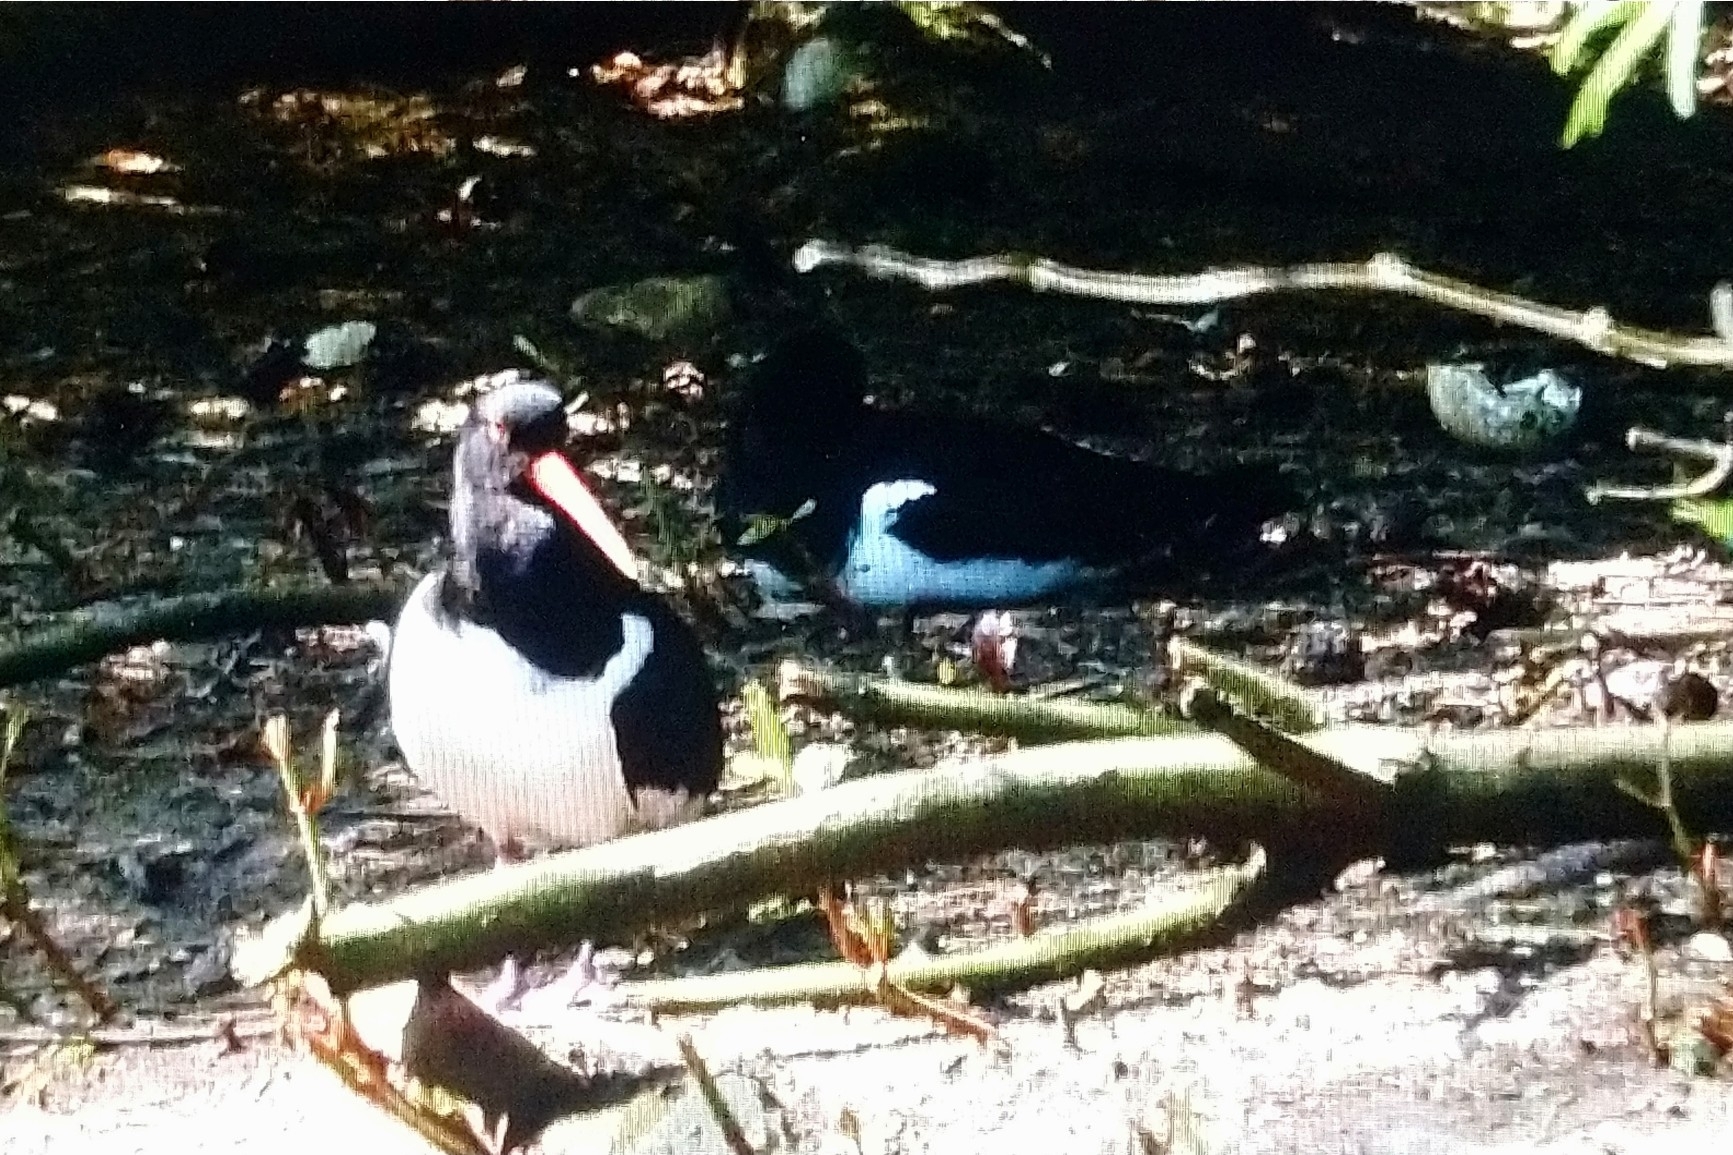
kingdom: Animalia
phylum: Chordata
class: Aves
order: Charadriiformes
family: Haematopodidae
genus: Haematopus
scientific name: Haematopus ostralegus
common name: Eurasian oystercatcher
